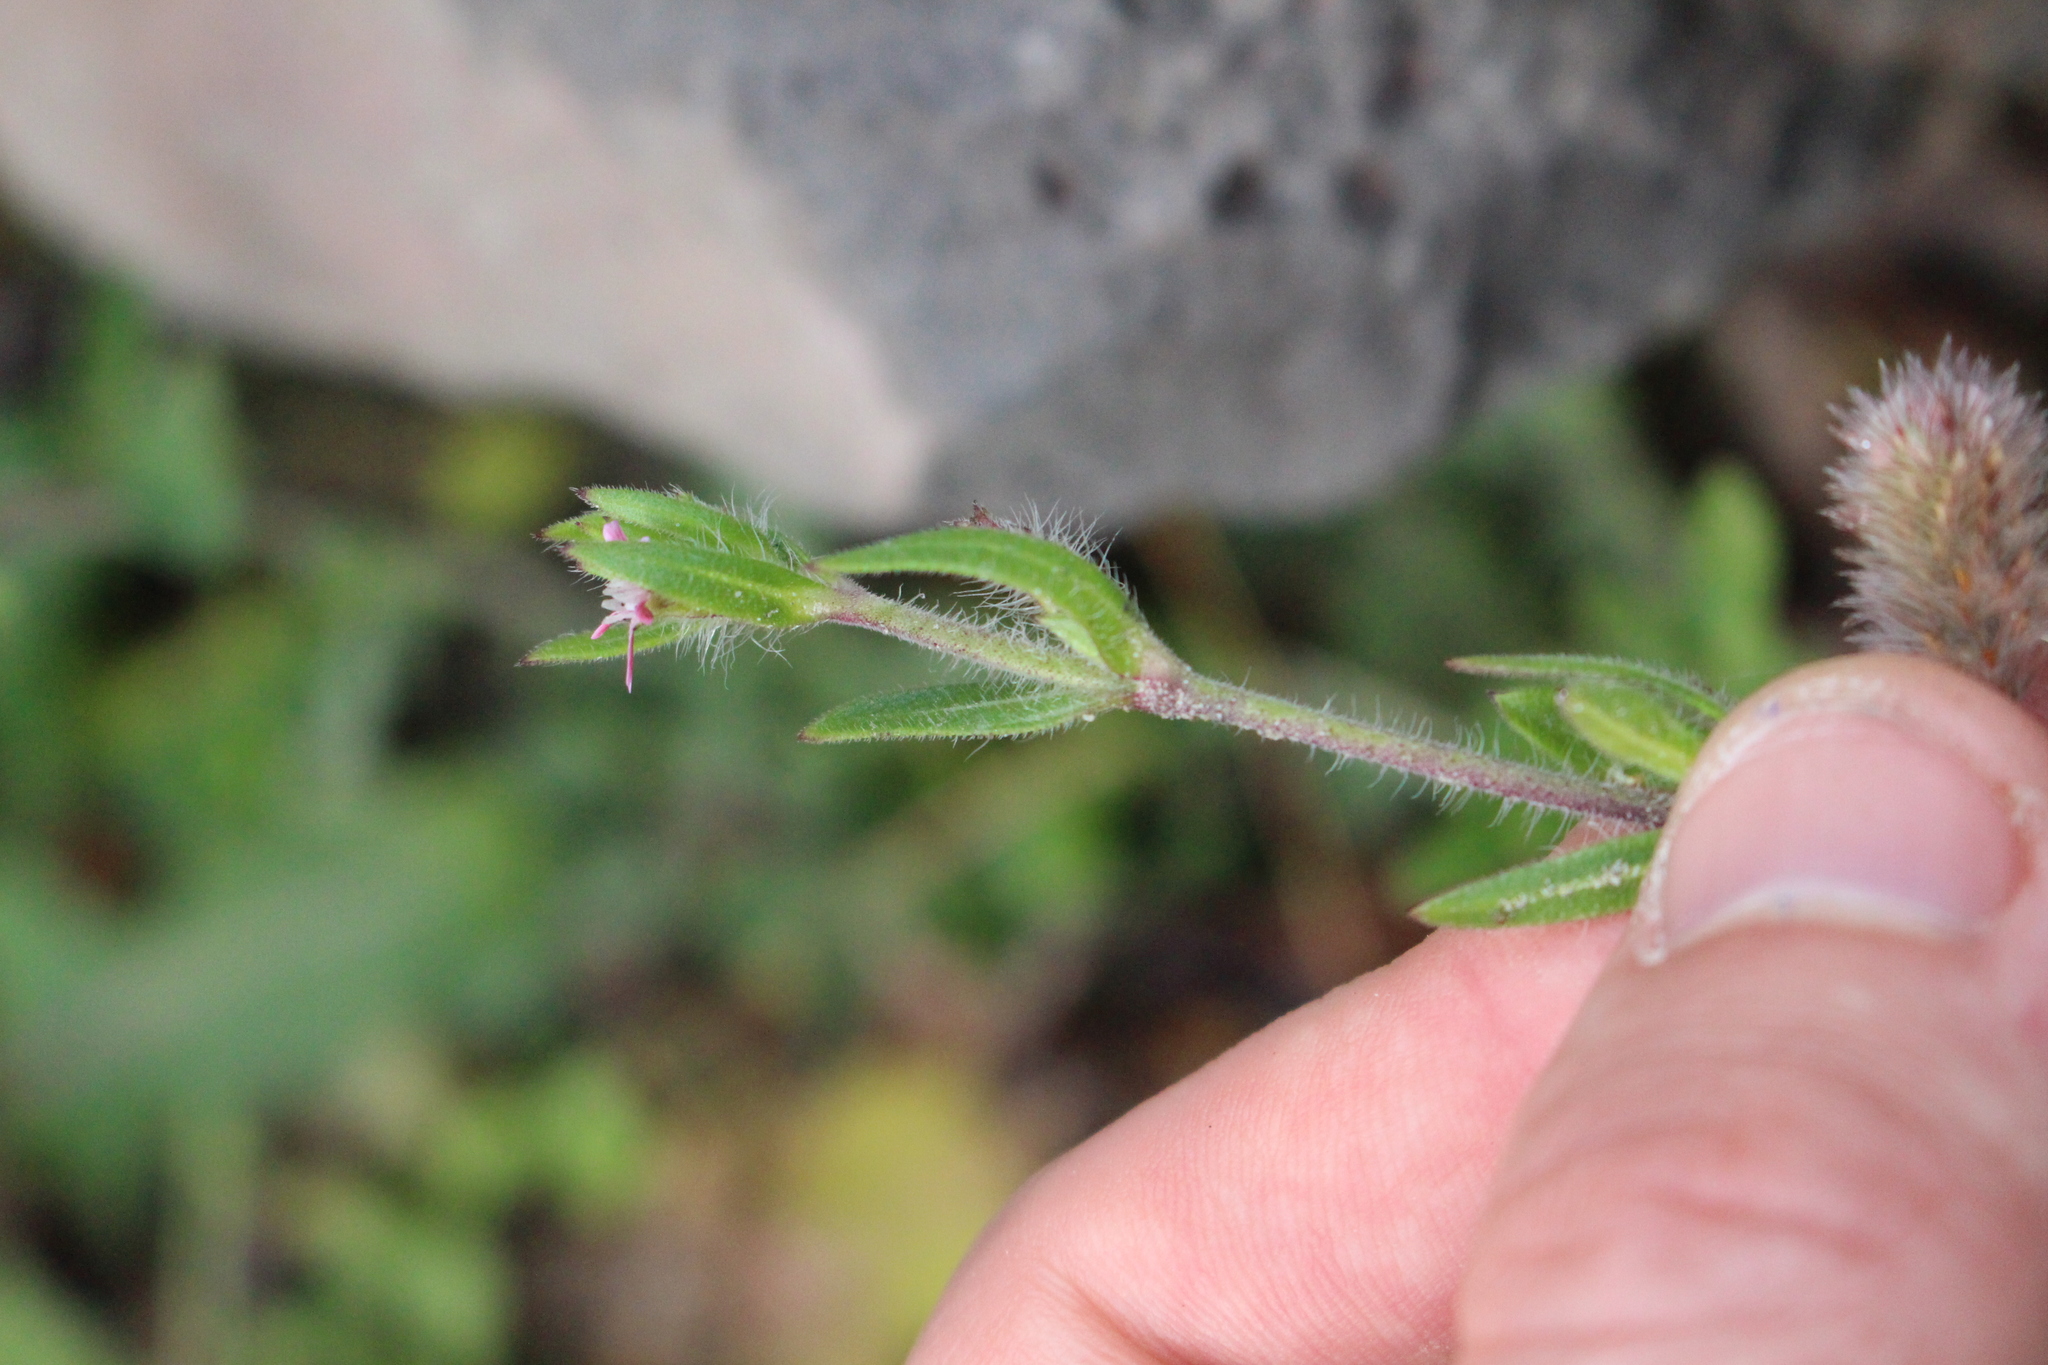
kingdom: Plantae
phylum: Tracheophyta
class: Magnoliopsida
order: Caryophyllales
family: Caryophyllaceae
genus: Silene
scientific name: Silene gallica
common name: Small-flowered catchfly
